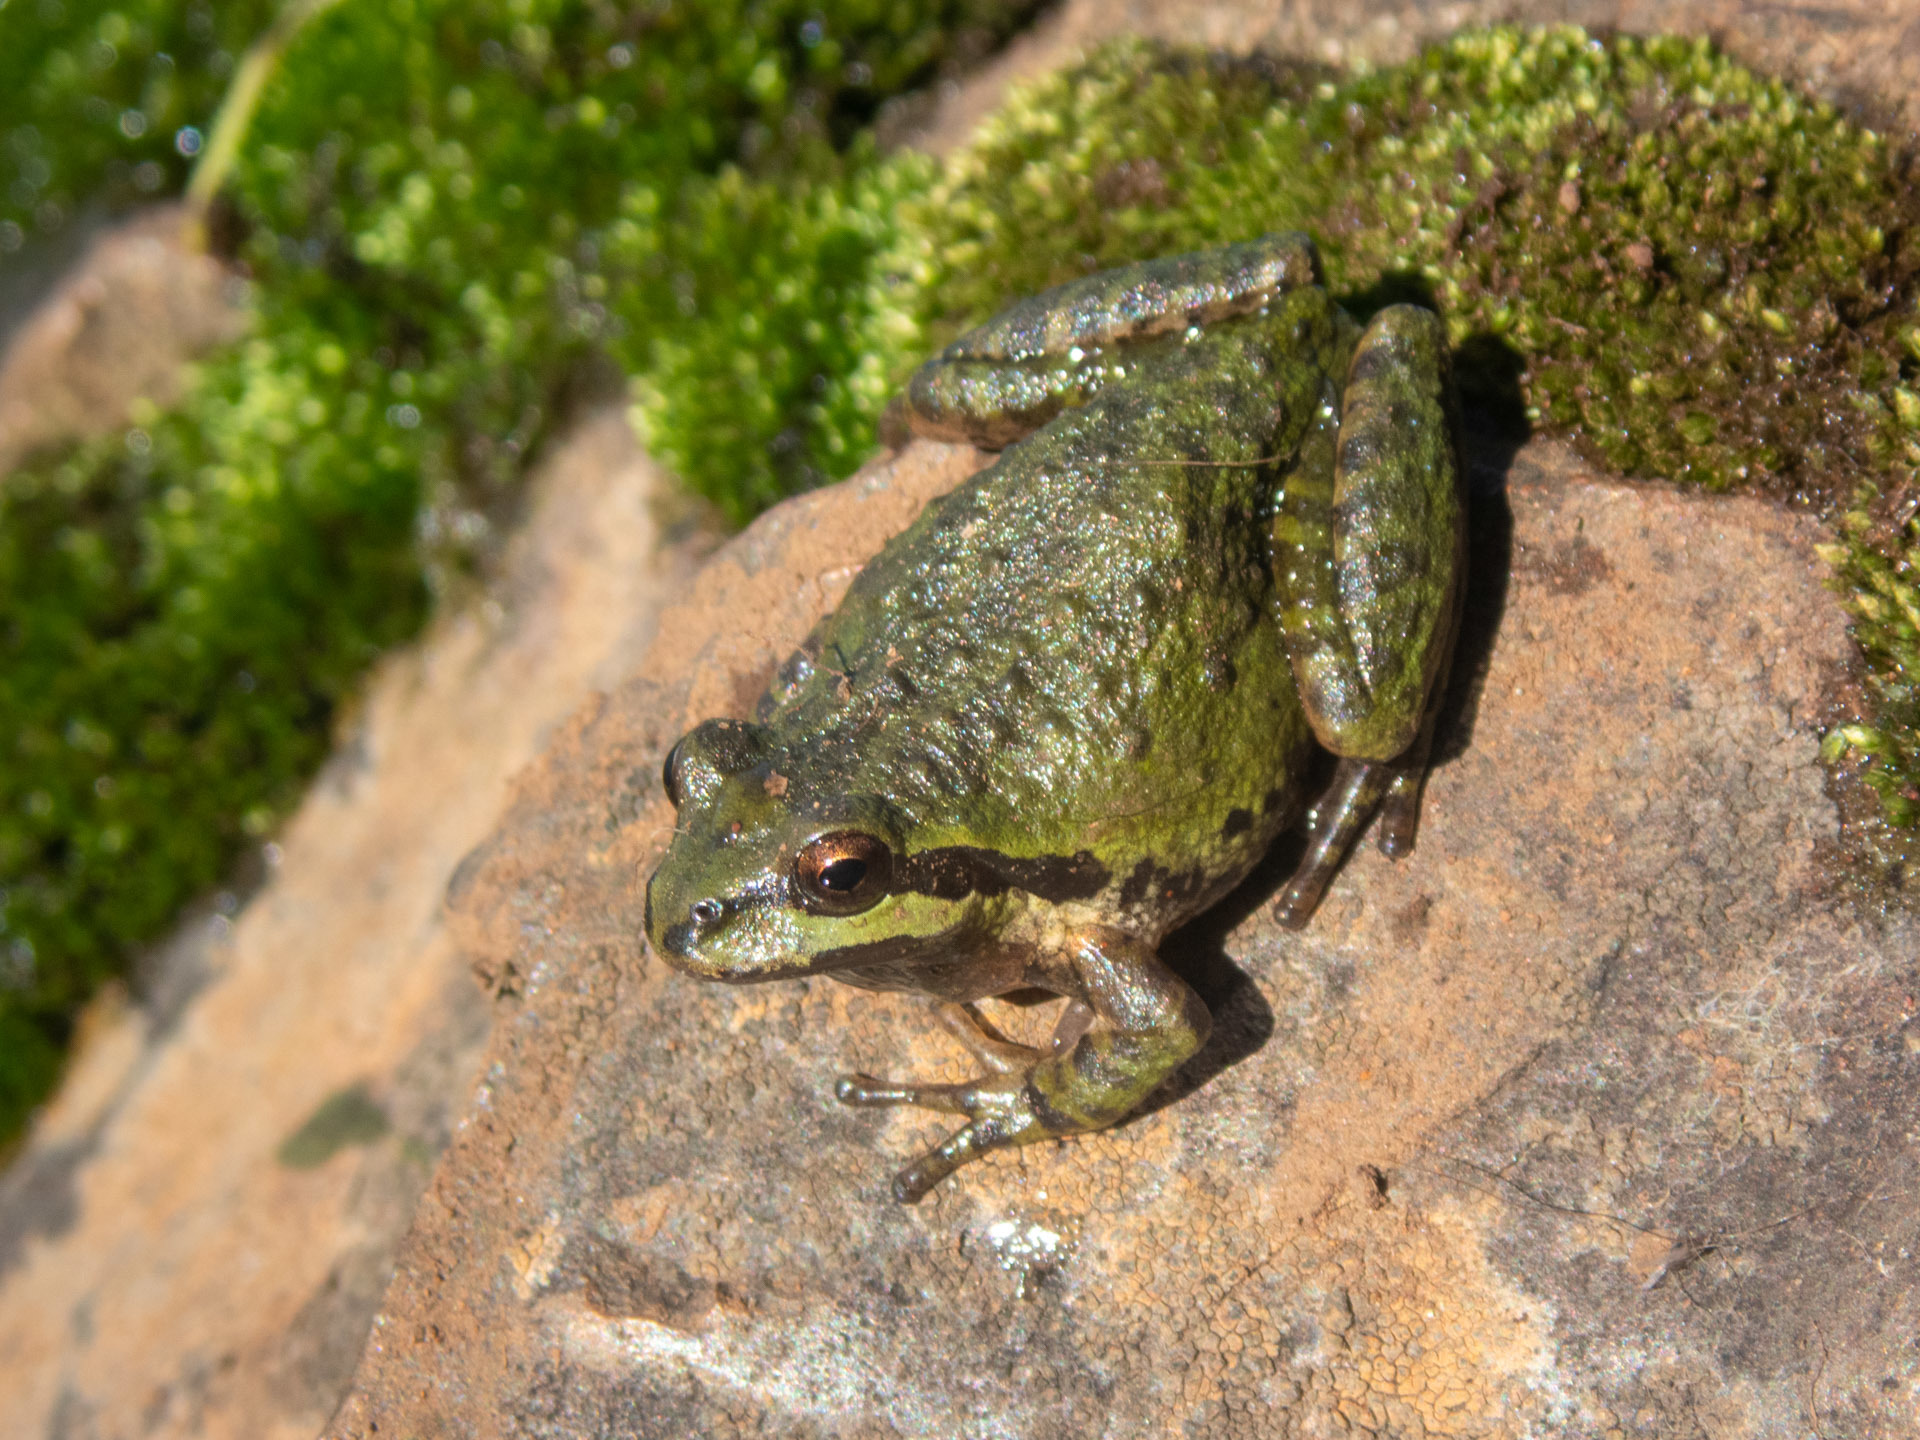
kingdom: Animalia
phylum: Chordata
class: Amphibia
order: Anura
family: Hylidae
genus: Pseudacris
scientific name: Pseudacris regilla
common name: Pacific chorus frog
